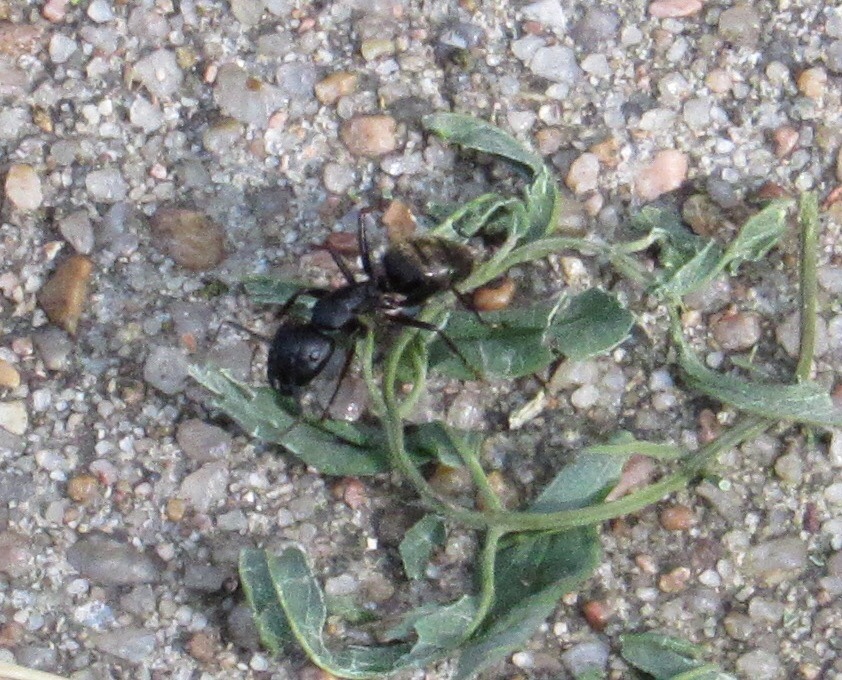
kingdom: Animalia
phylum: Arthropoda
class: Insecta
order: Hymenoptera
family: Formicidae
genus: Camponotus
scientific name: Camponotus pennsylvanicus
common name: Black carpenter ant
